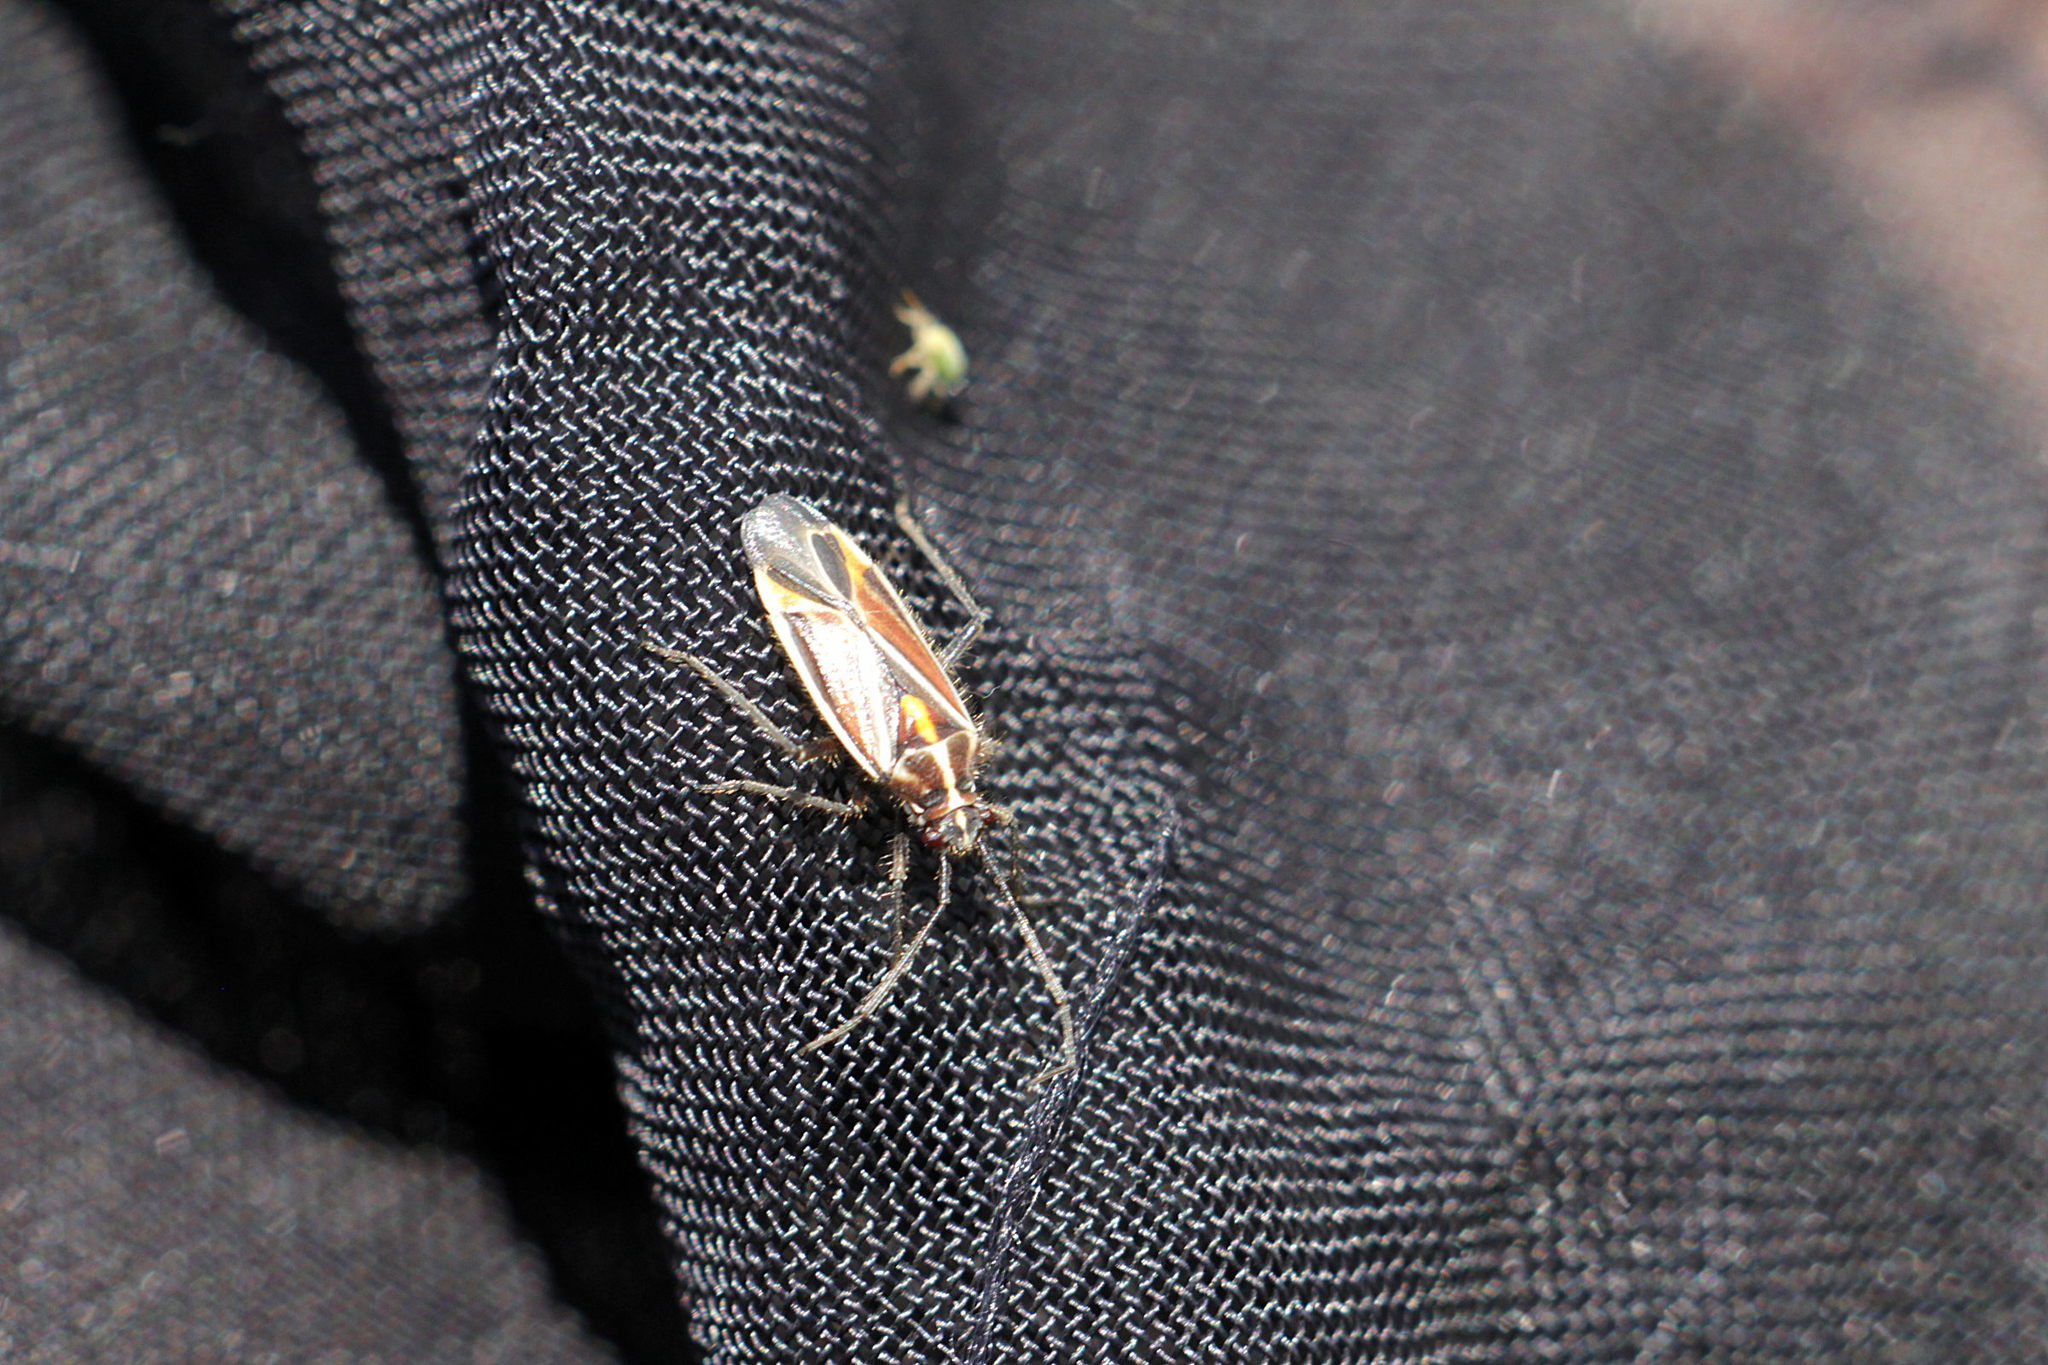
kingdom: Animalia
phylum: Arthropoda
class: Insecta
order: Hemiptera
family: Miridae
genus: Horistus
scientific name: Horistus orientalis
